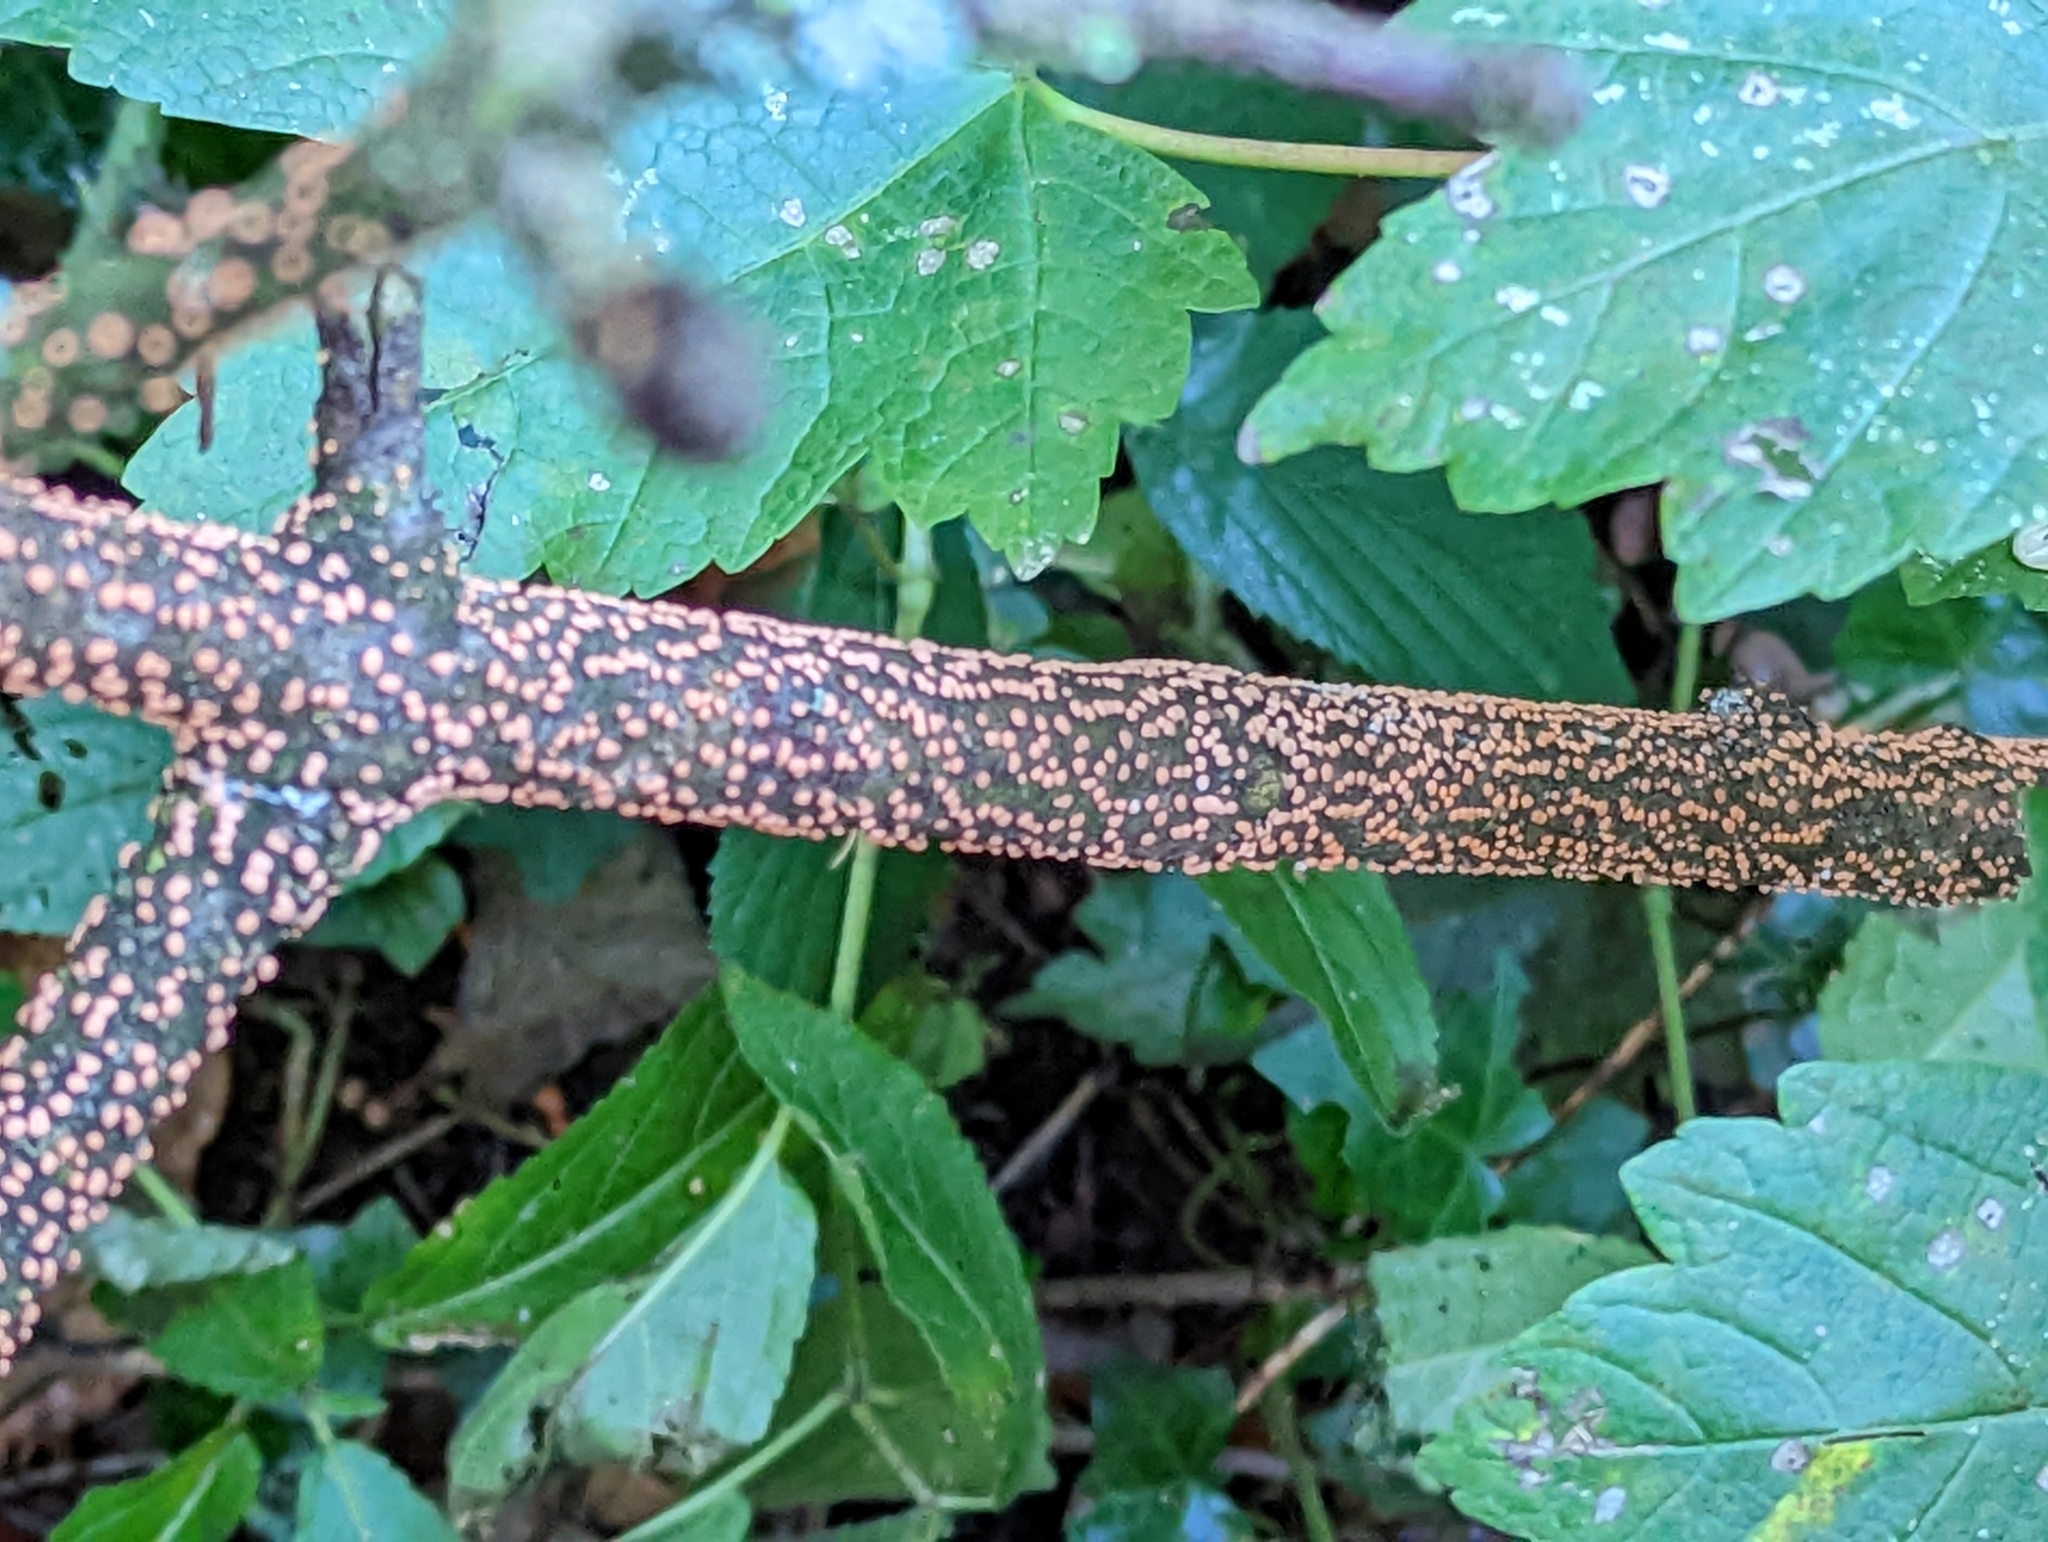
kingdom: Fungi
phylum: Ascomycota
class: Sordariomycetes
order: Hypocreales
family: Nectriaceae
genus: Nectria
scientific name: Nectria cinnabarina
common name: Coral spot
